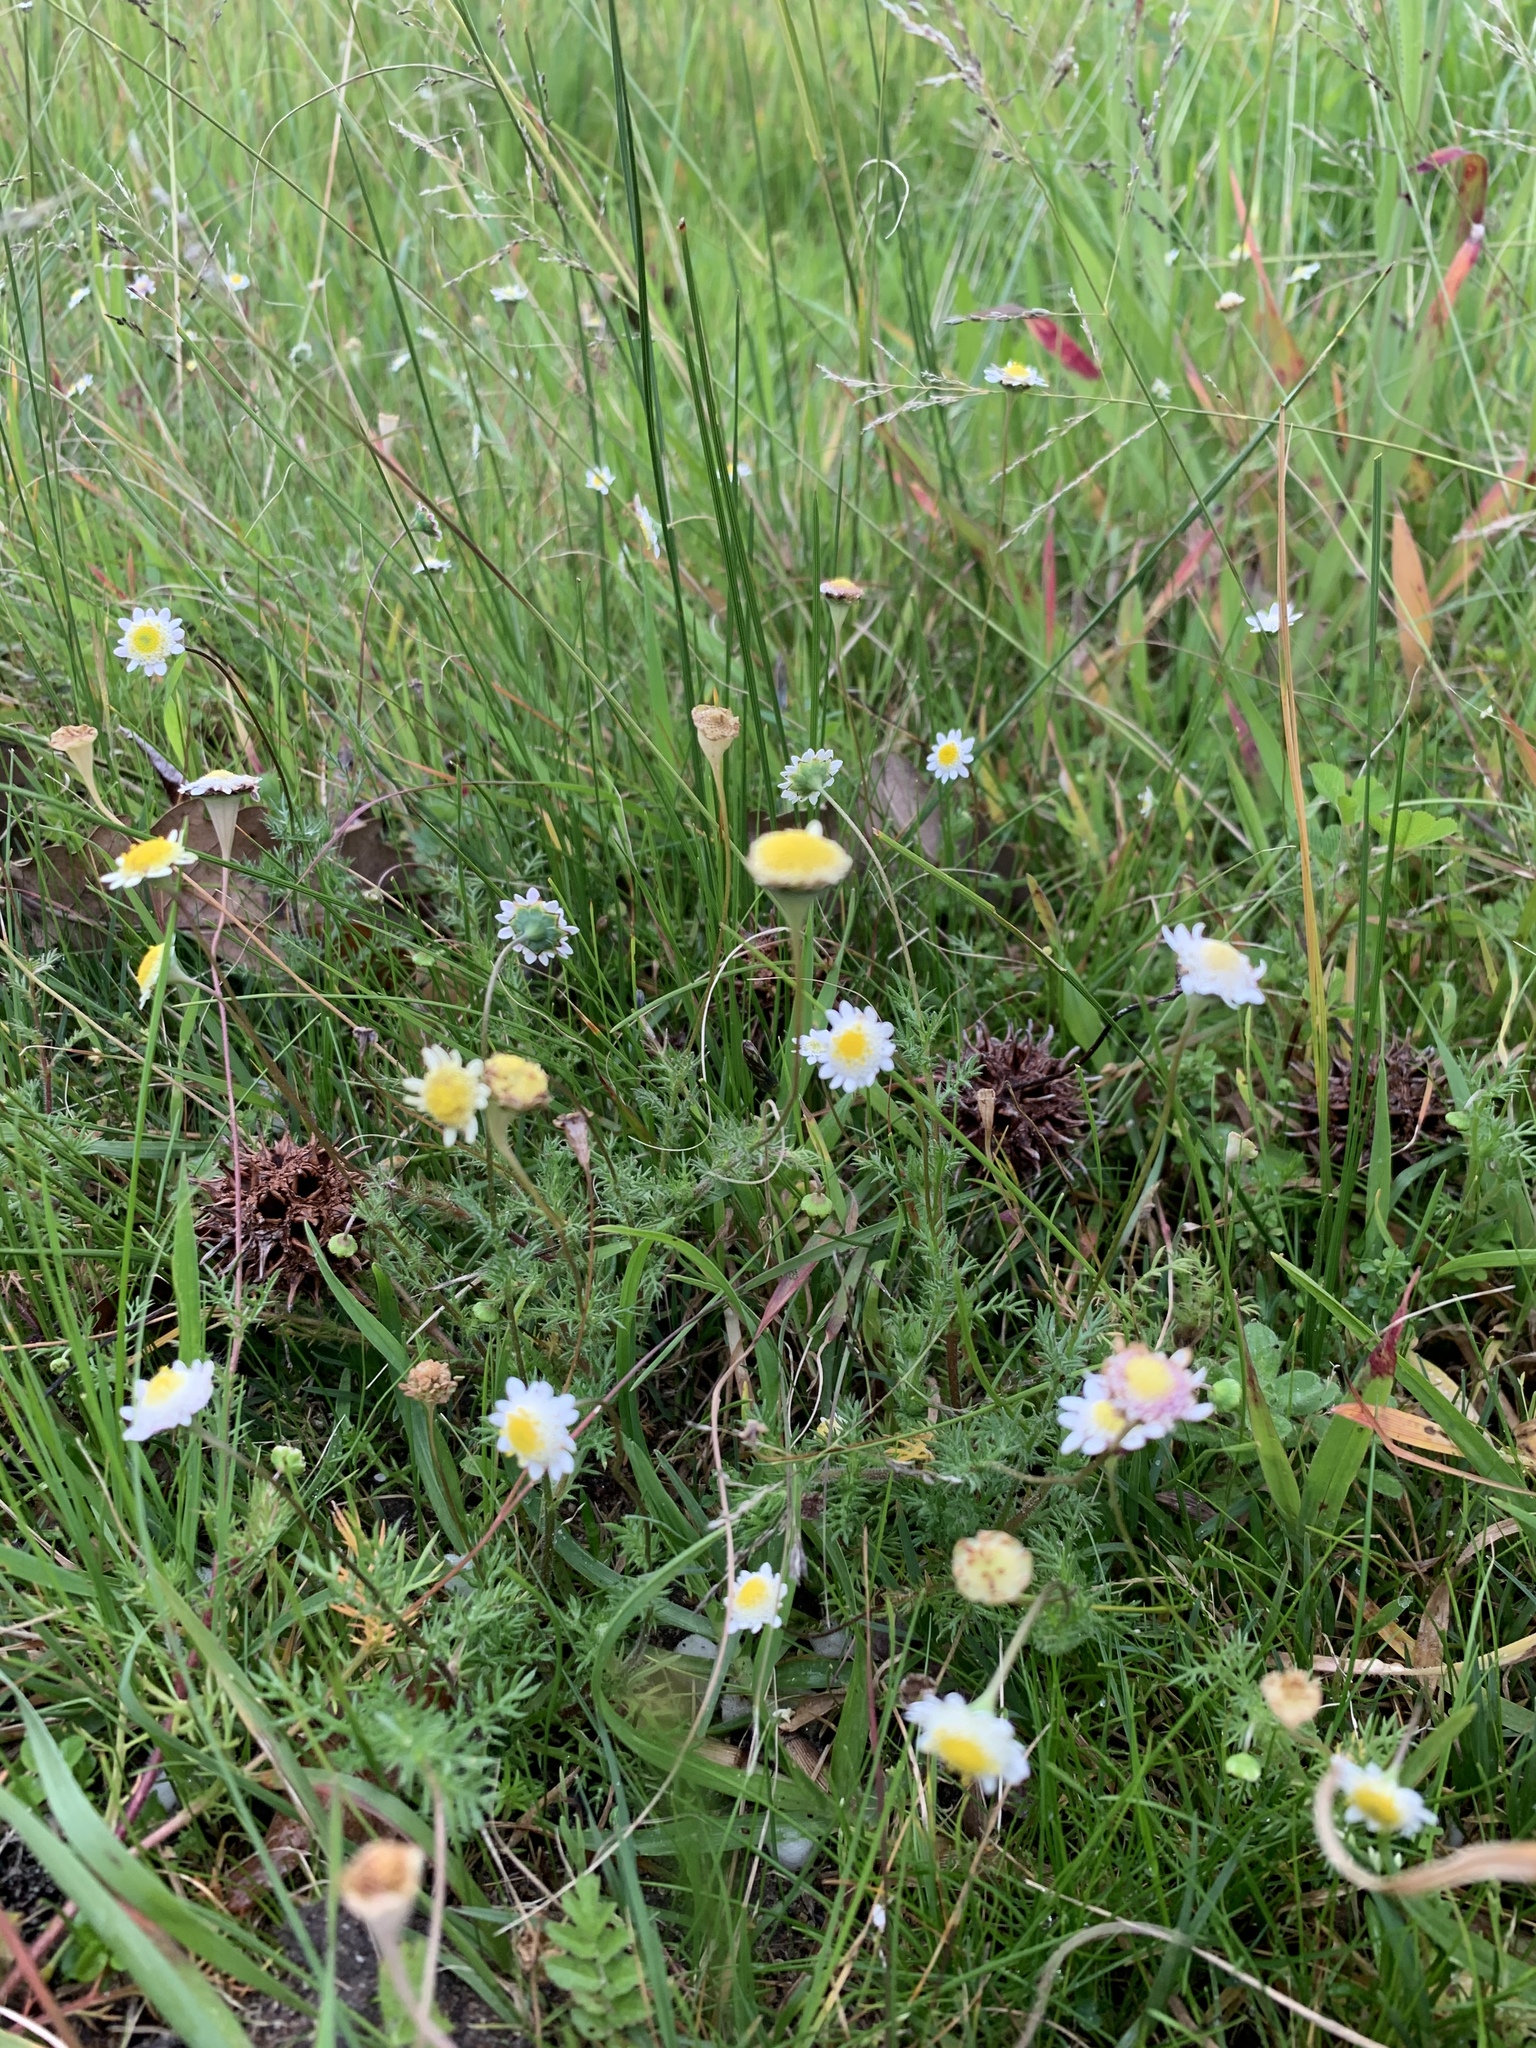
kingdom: Plantae
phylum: Tracheophyta
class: Magnoliopsida
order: Asterales
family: Asteraceae
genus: Cotula
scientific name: Cotula turbinata
